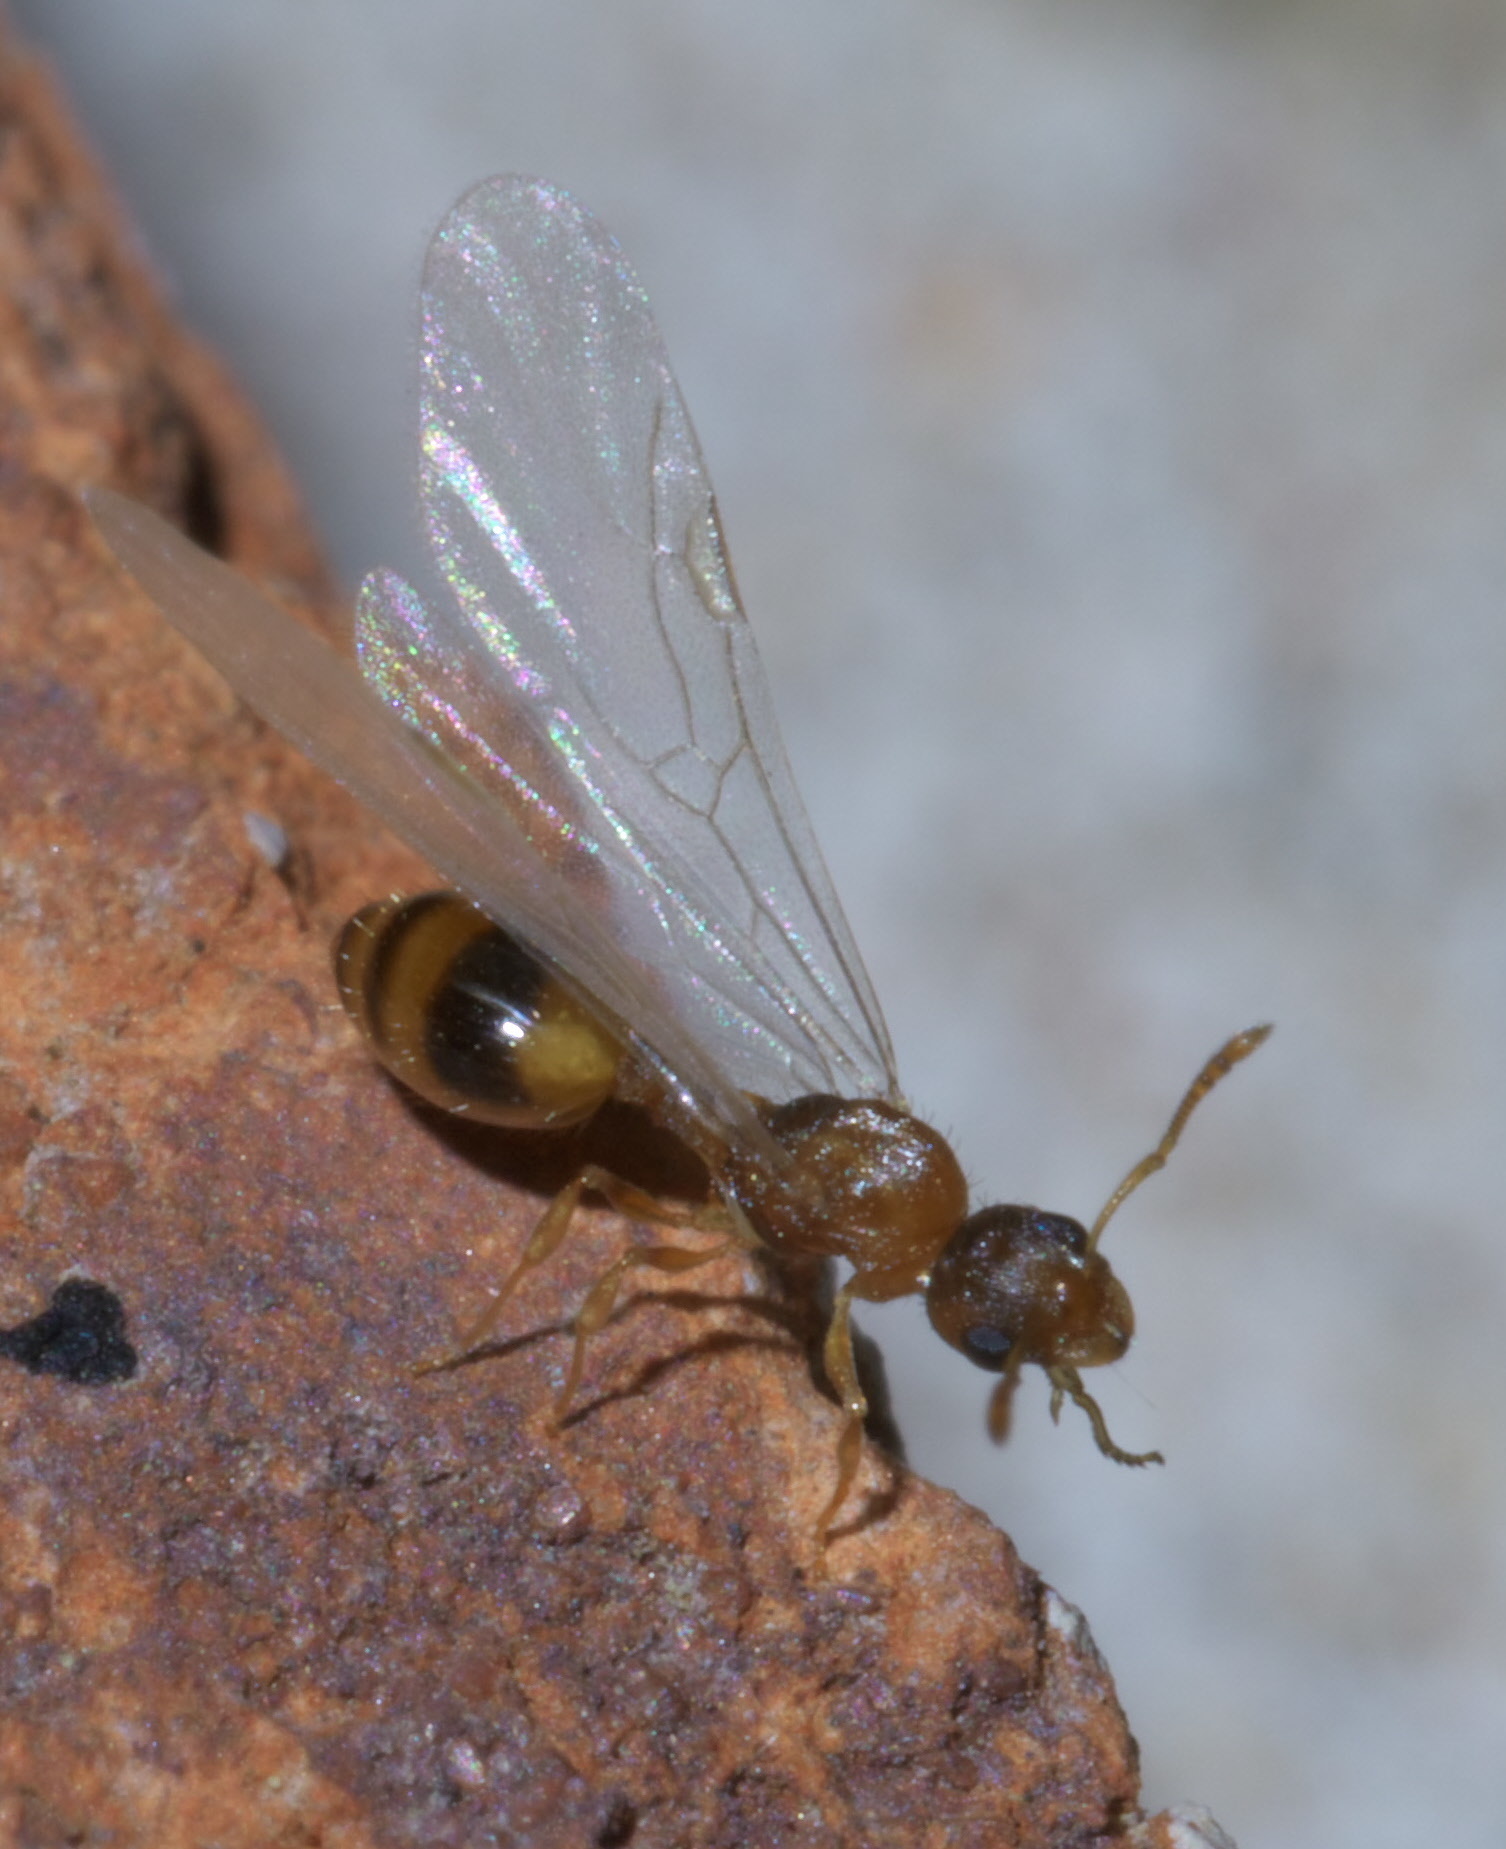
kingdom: Animalia
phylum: Arthropoda
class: Insecta
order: Hymenoptera
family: Formicidae
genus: Temnothorax
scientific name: Temnothorax curvispinosus
